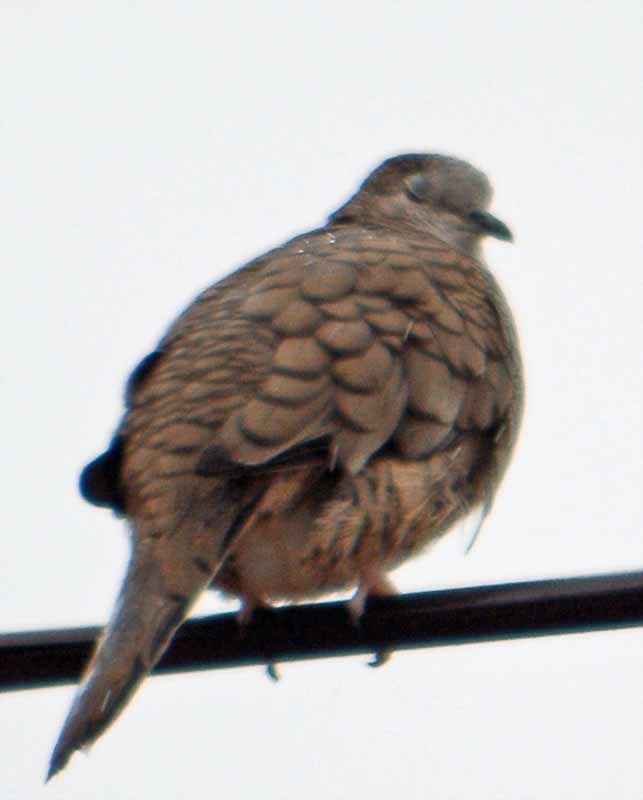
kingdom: Animalia
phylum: Chordata
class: Aves
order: Columbiformes
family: Columbidae
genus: Columbina
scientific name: Columbina inca
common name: Inca dove
